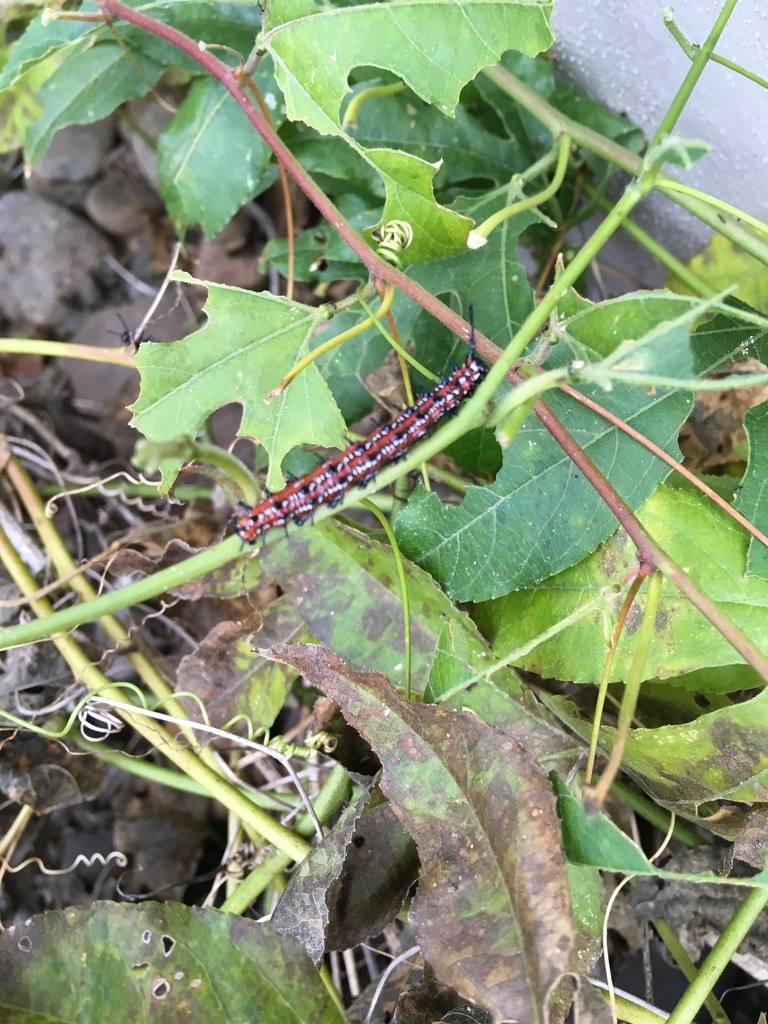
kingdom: Animalia
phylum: Arthropoda
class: Insecta
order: Lepidoptera
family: Nymphalidae
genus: Euptoieta
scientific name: Euptoieta claudia
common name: Variegated fritillary
